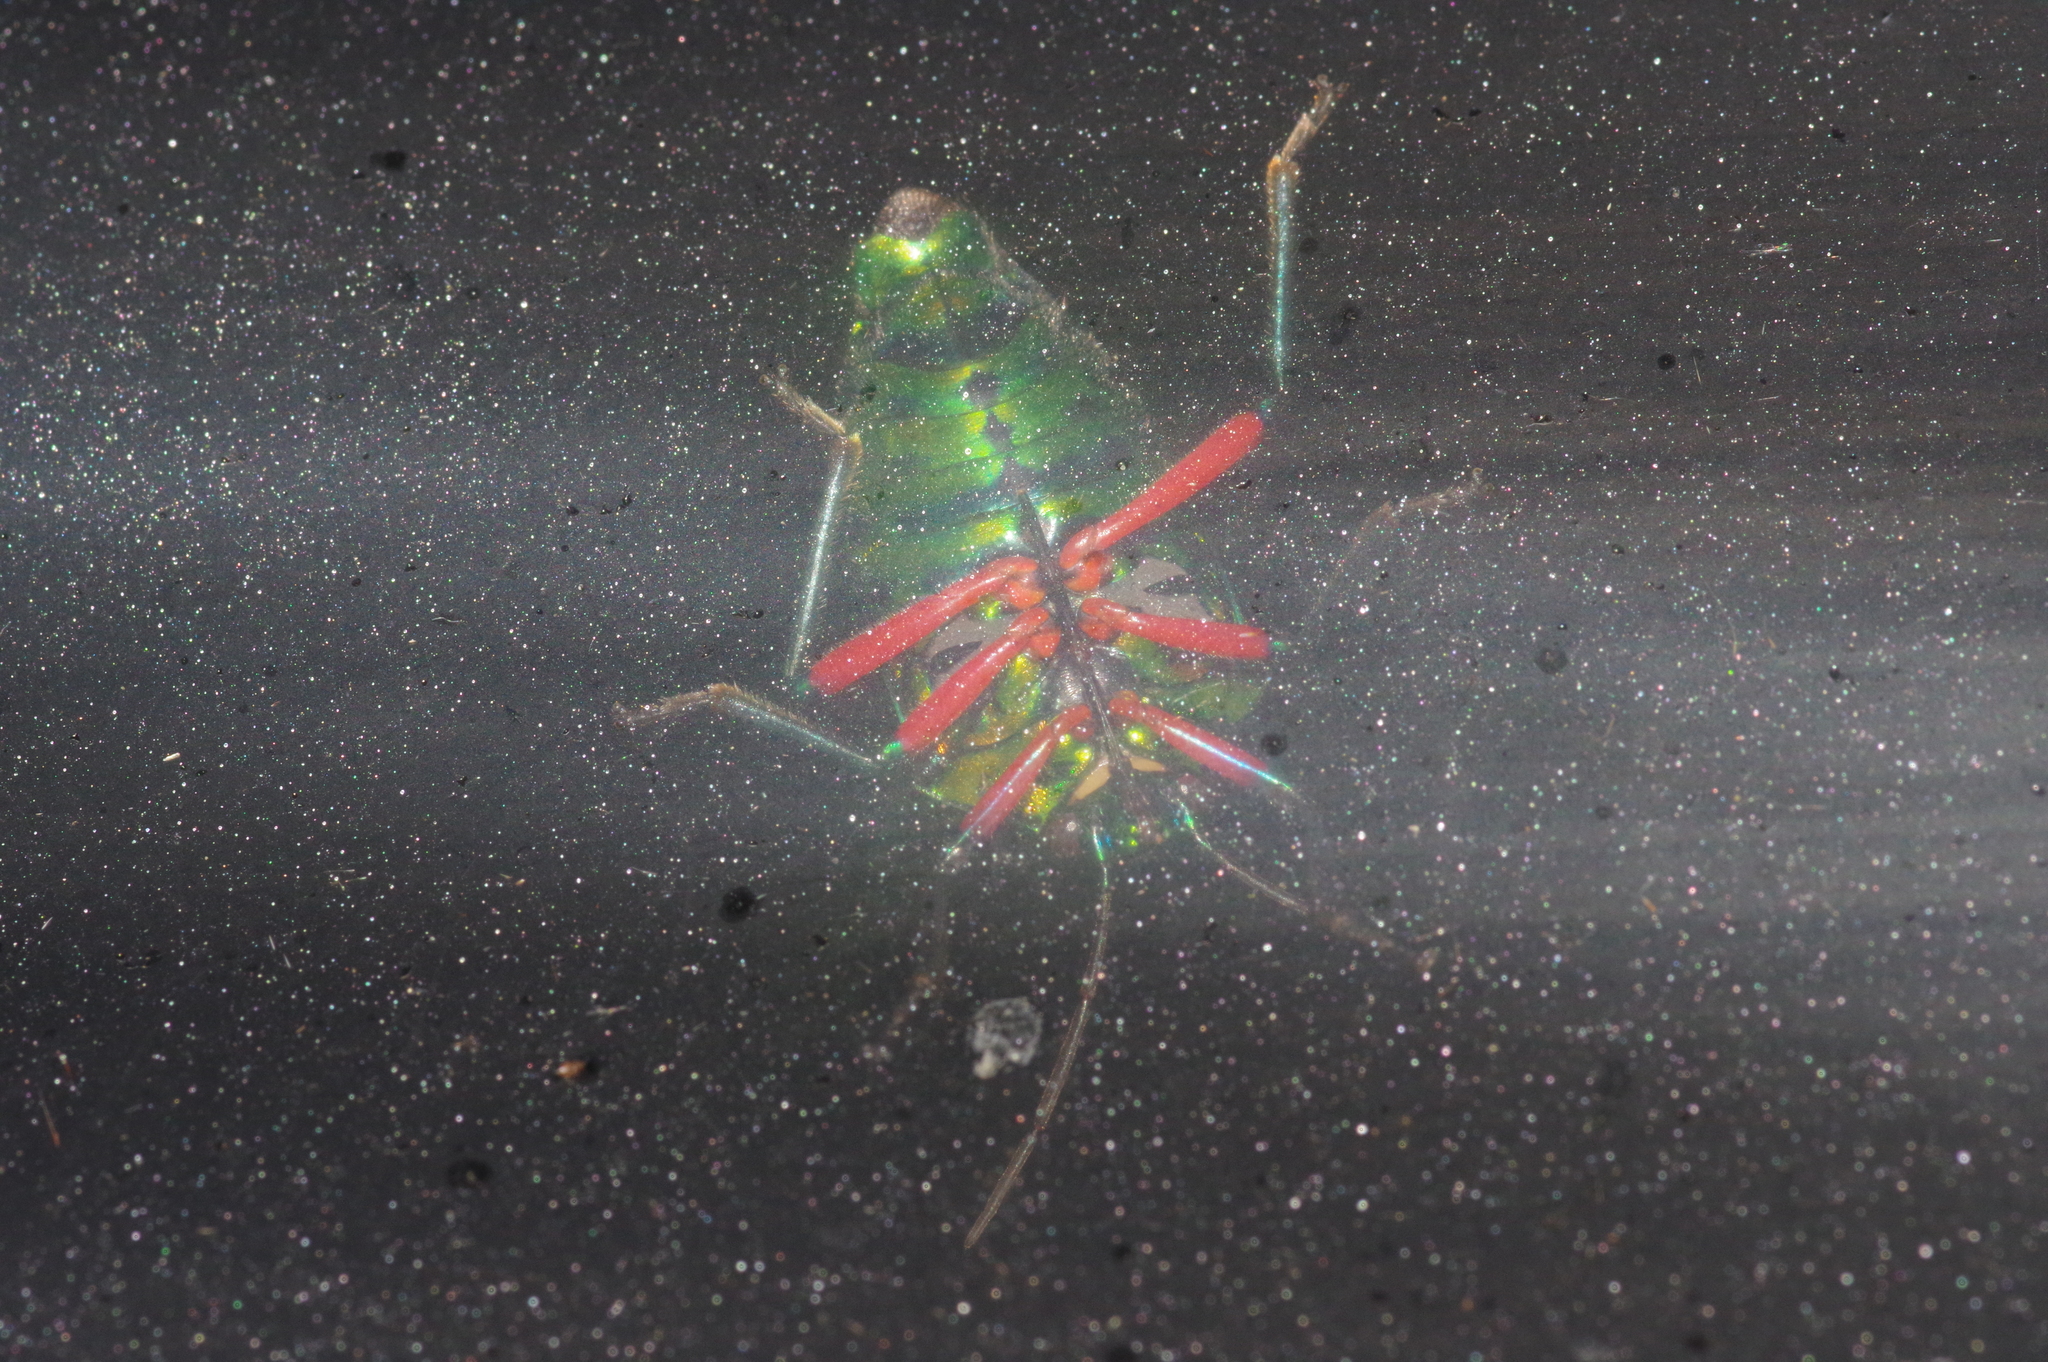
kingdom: Animalia
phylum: Arthropoda
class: Insecta
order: Hemiptera
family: Scutelleridae
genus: Calliphara
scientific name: Calliphara excellens
